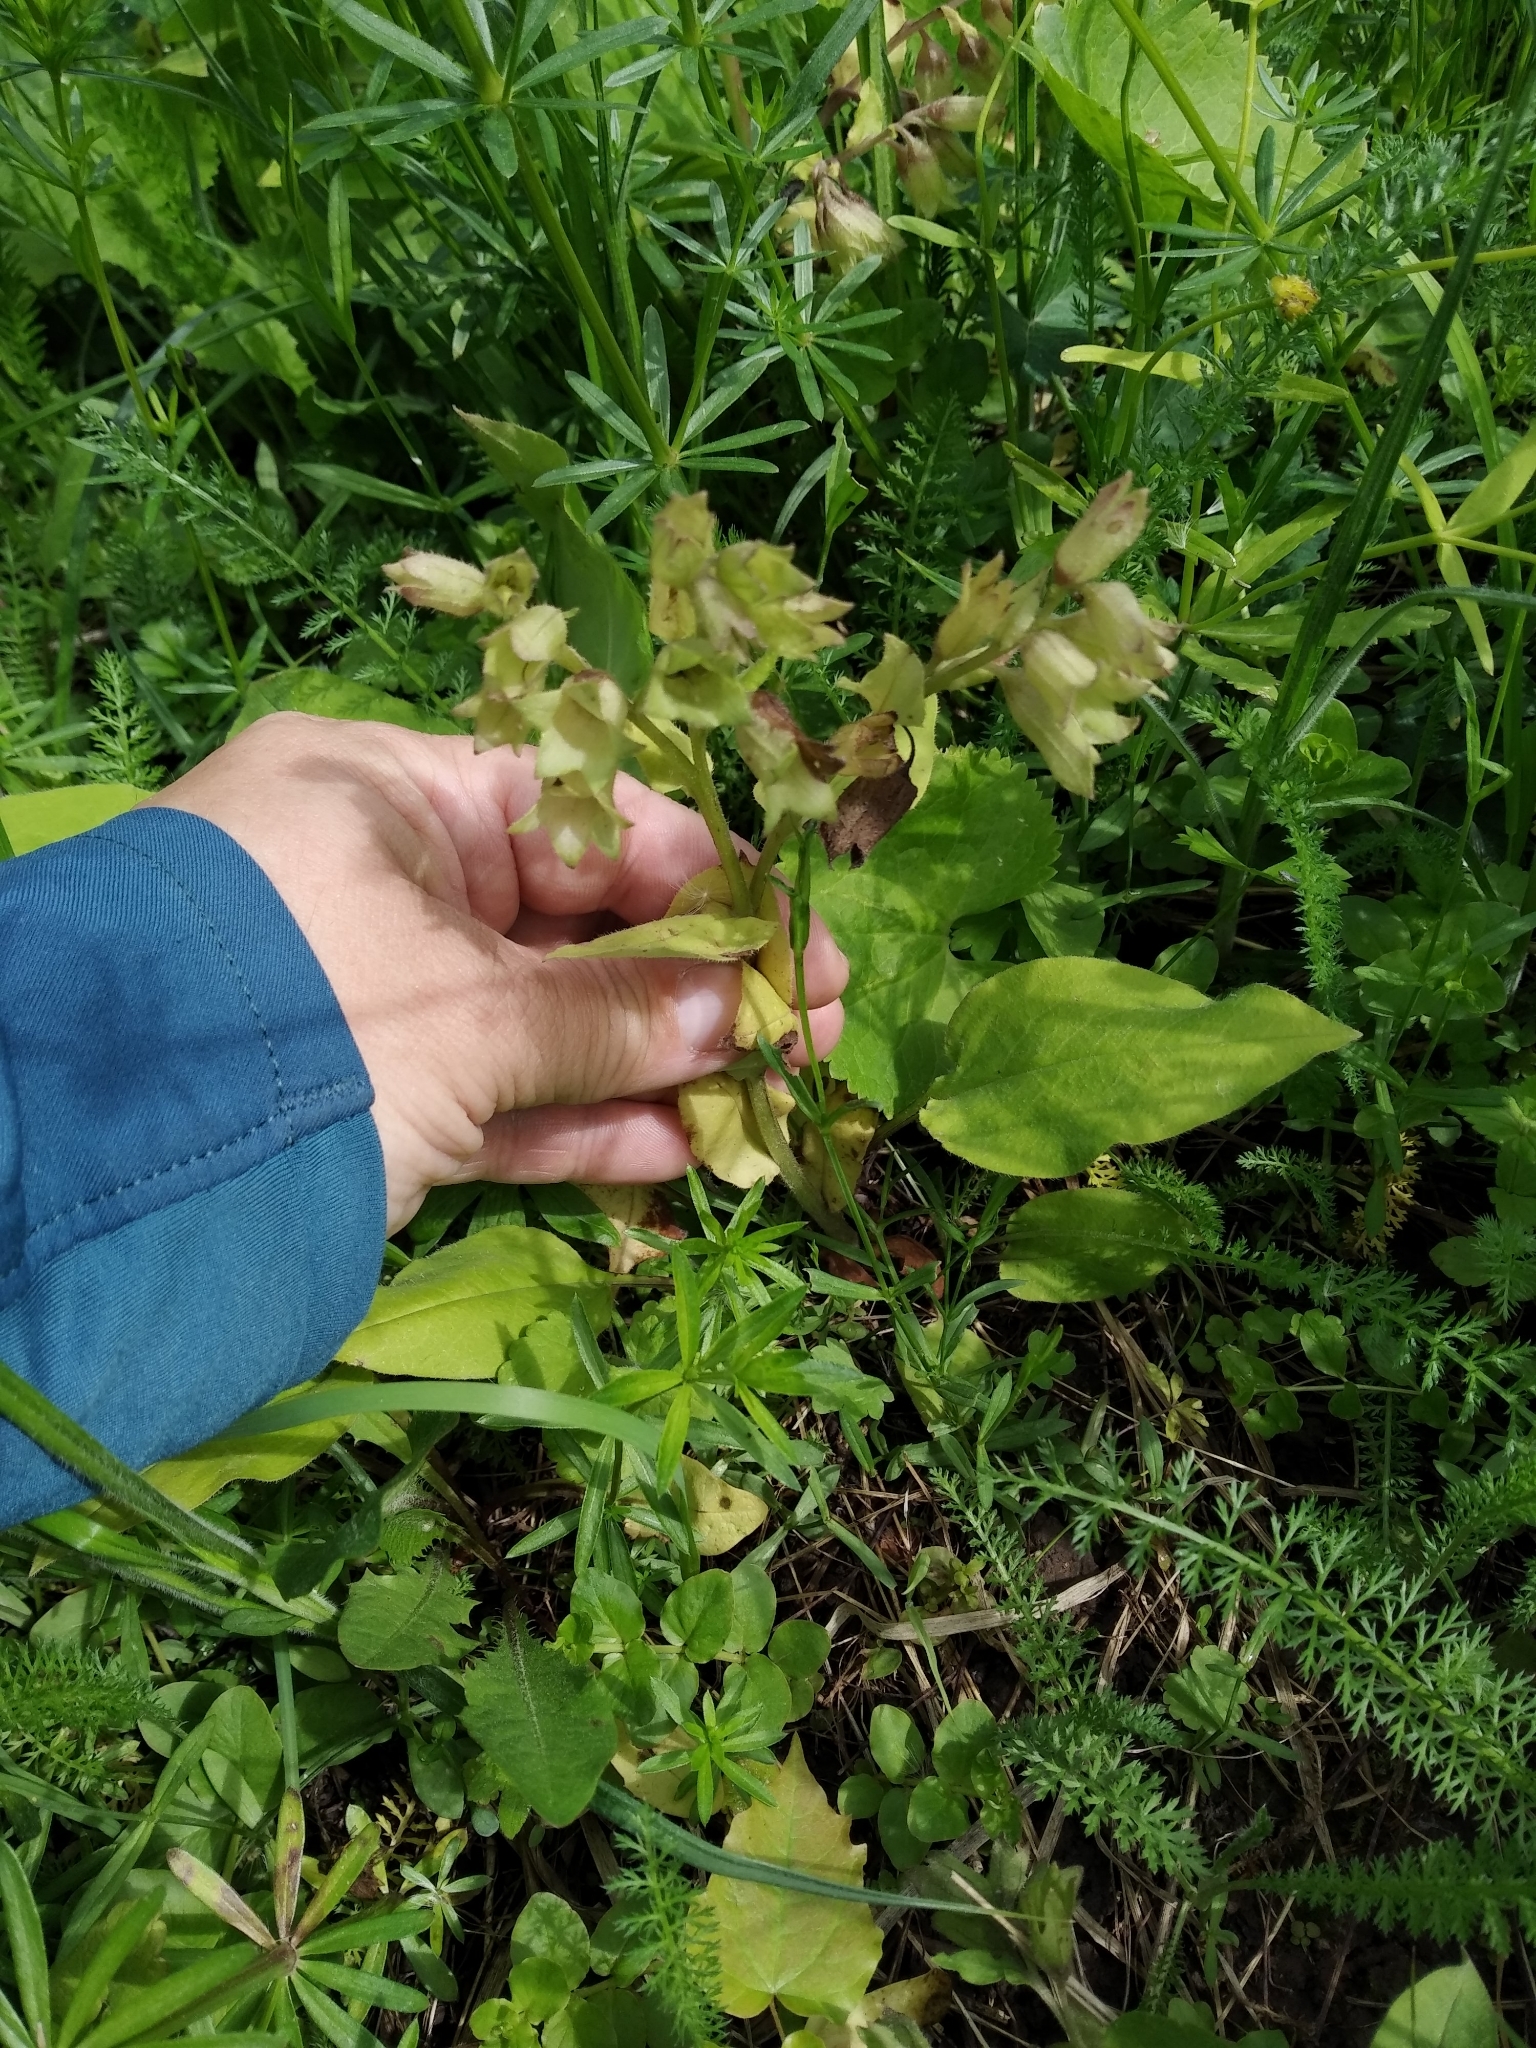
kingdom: Plantae
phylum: Tracheophyta
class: Magnoliopsida
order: Boraginales
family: Boraginaceae
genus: Pulmonaria
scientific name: Pulmonaria obscura
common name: Suffolk lungwort
